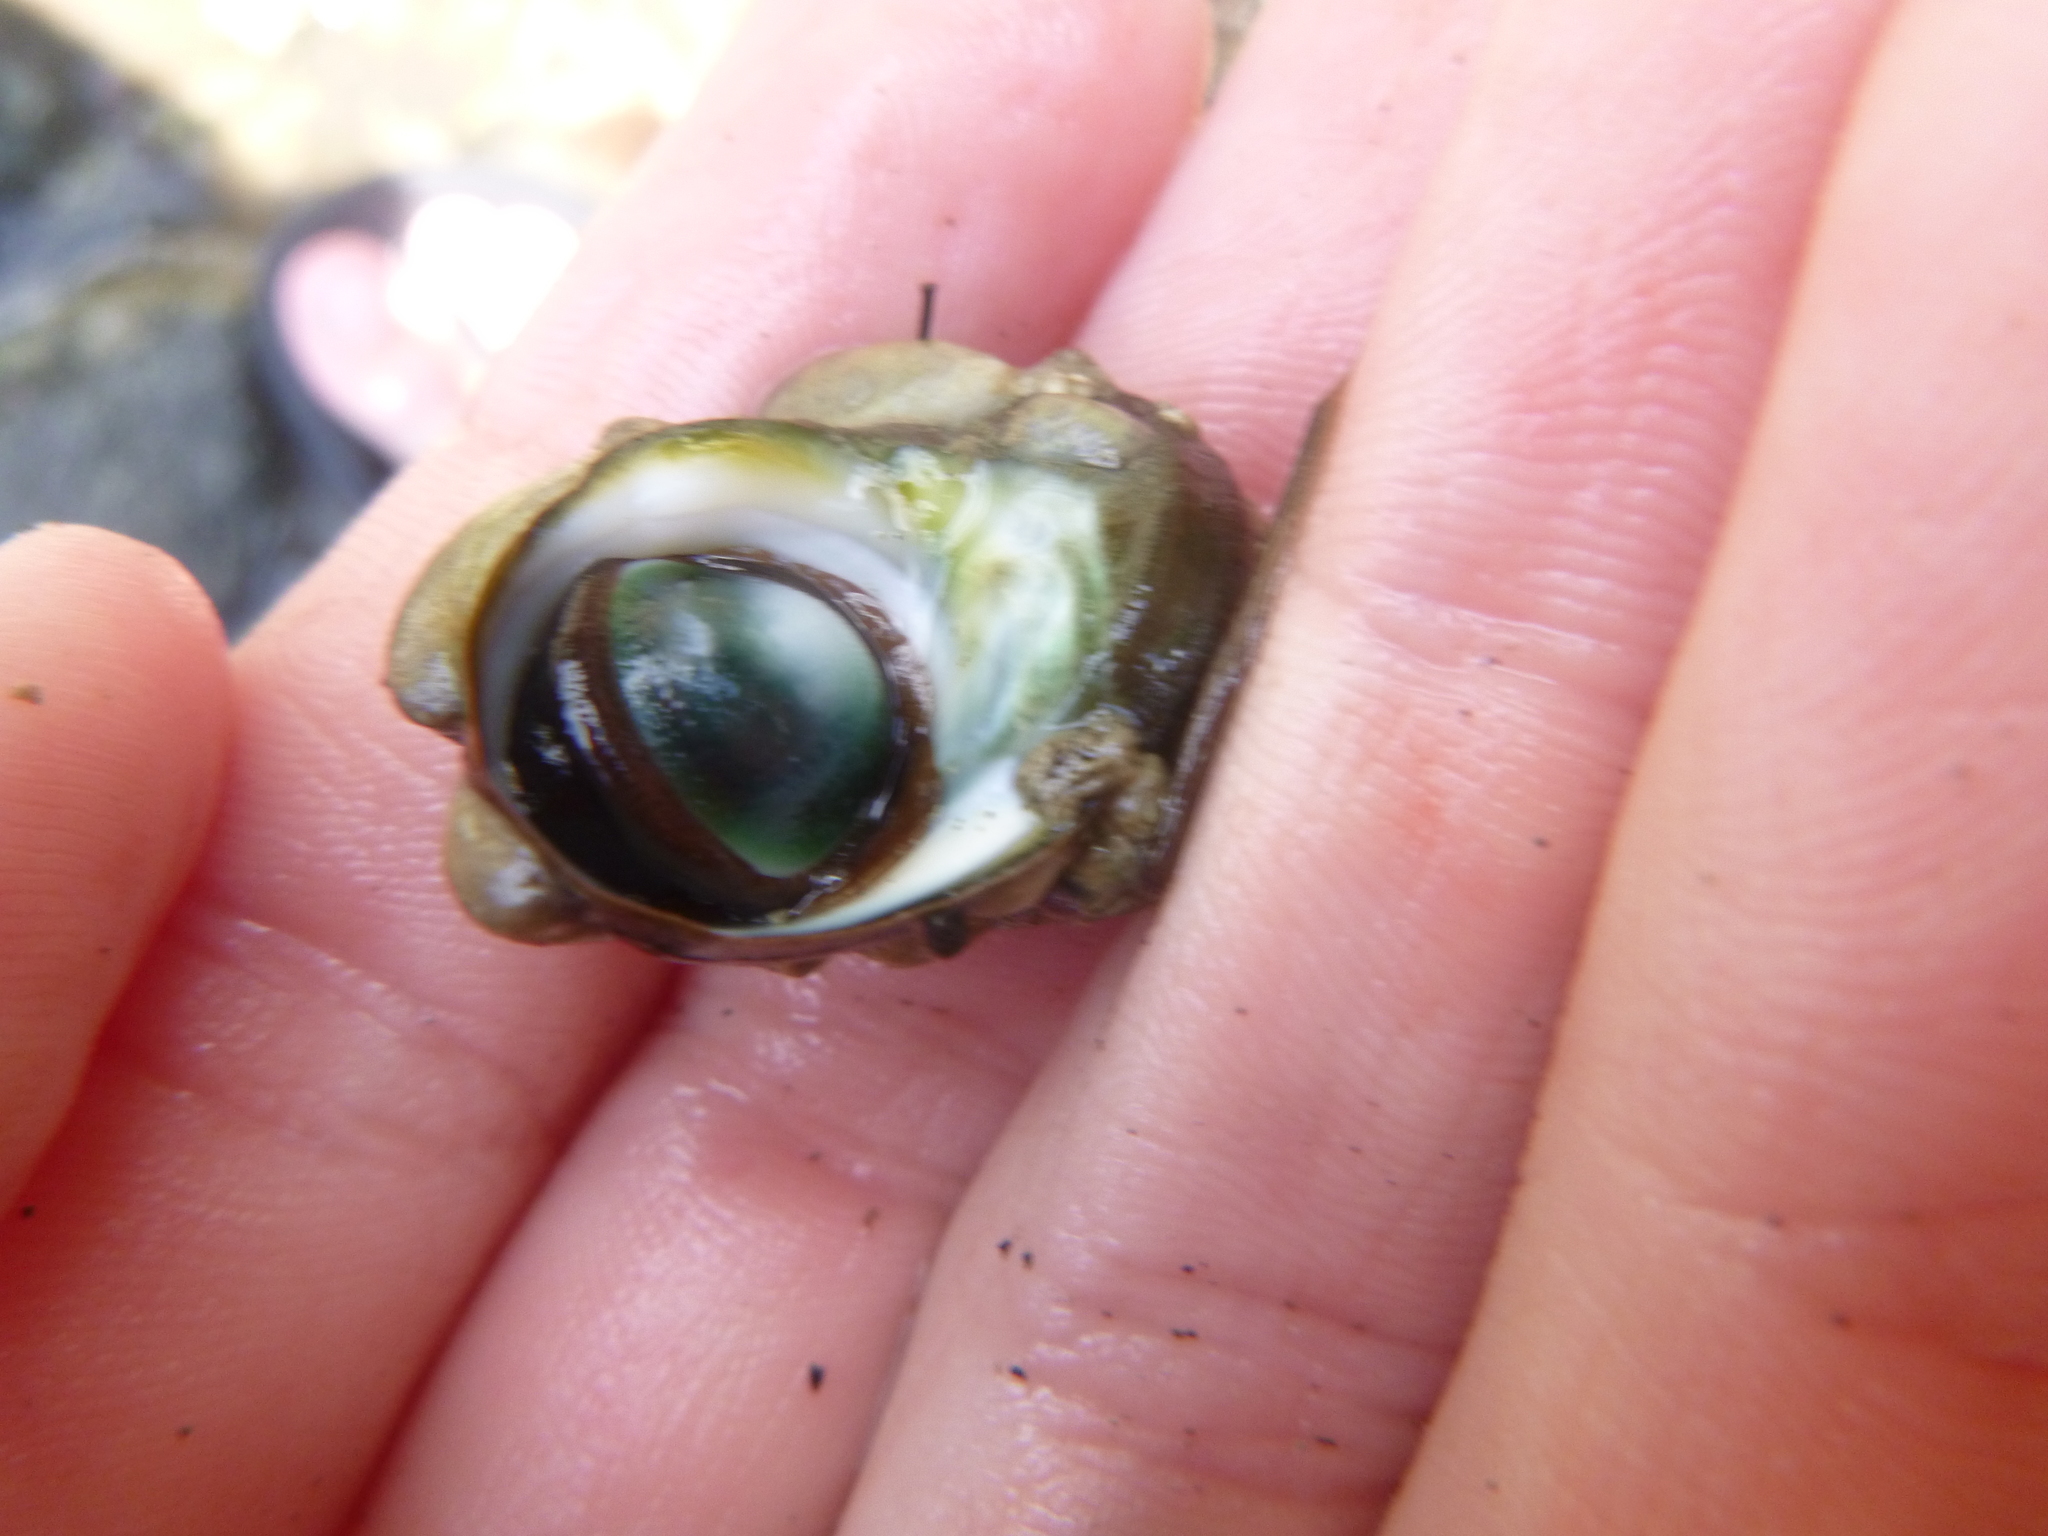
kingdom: Animalia
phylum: Mollusca
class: Gastropoda
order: Trochida
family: Turbinidae
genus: Lunella
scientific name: Lunella smaragda
